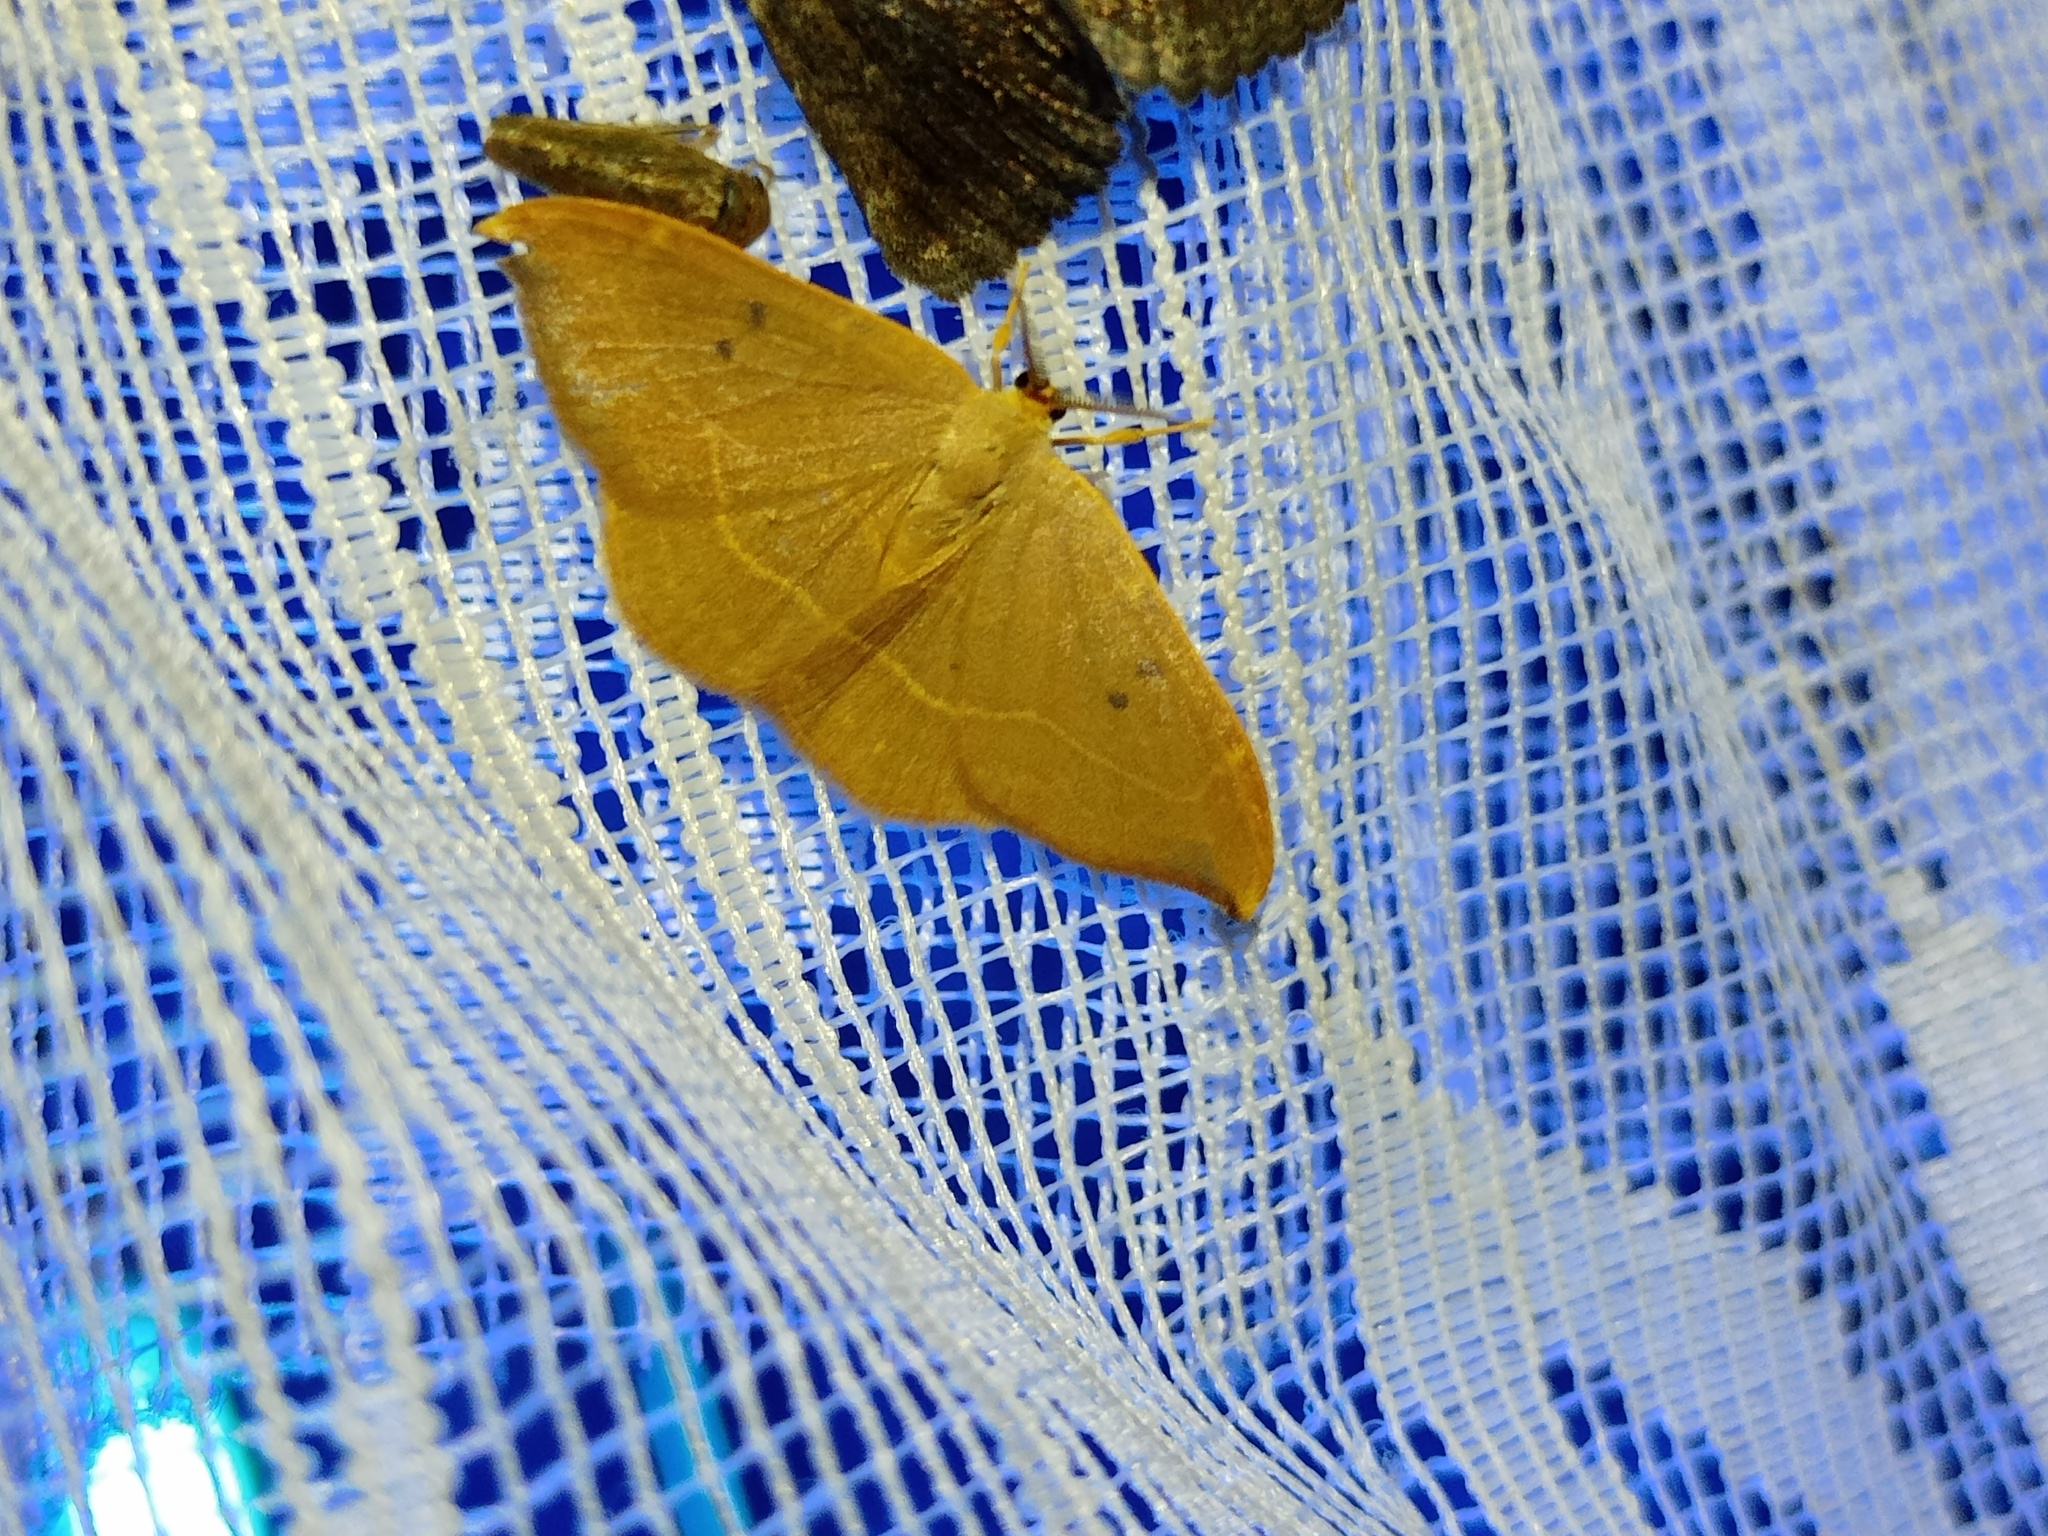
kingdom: Animalia
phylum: Arthropoda
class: Insecta
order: Lepidoptera
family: Drepanidae
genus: Watsonalla
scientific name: Watsonalla binaria
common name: Oak hook-tip
